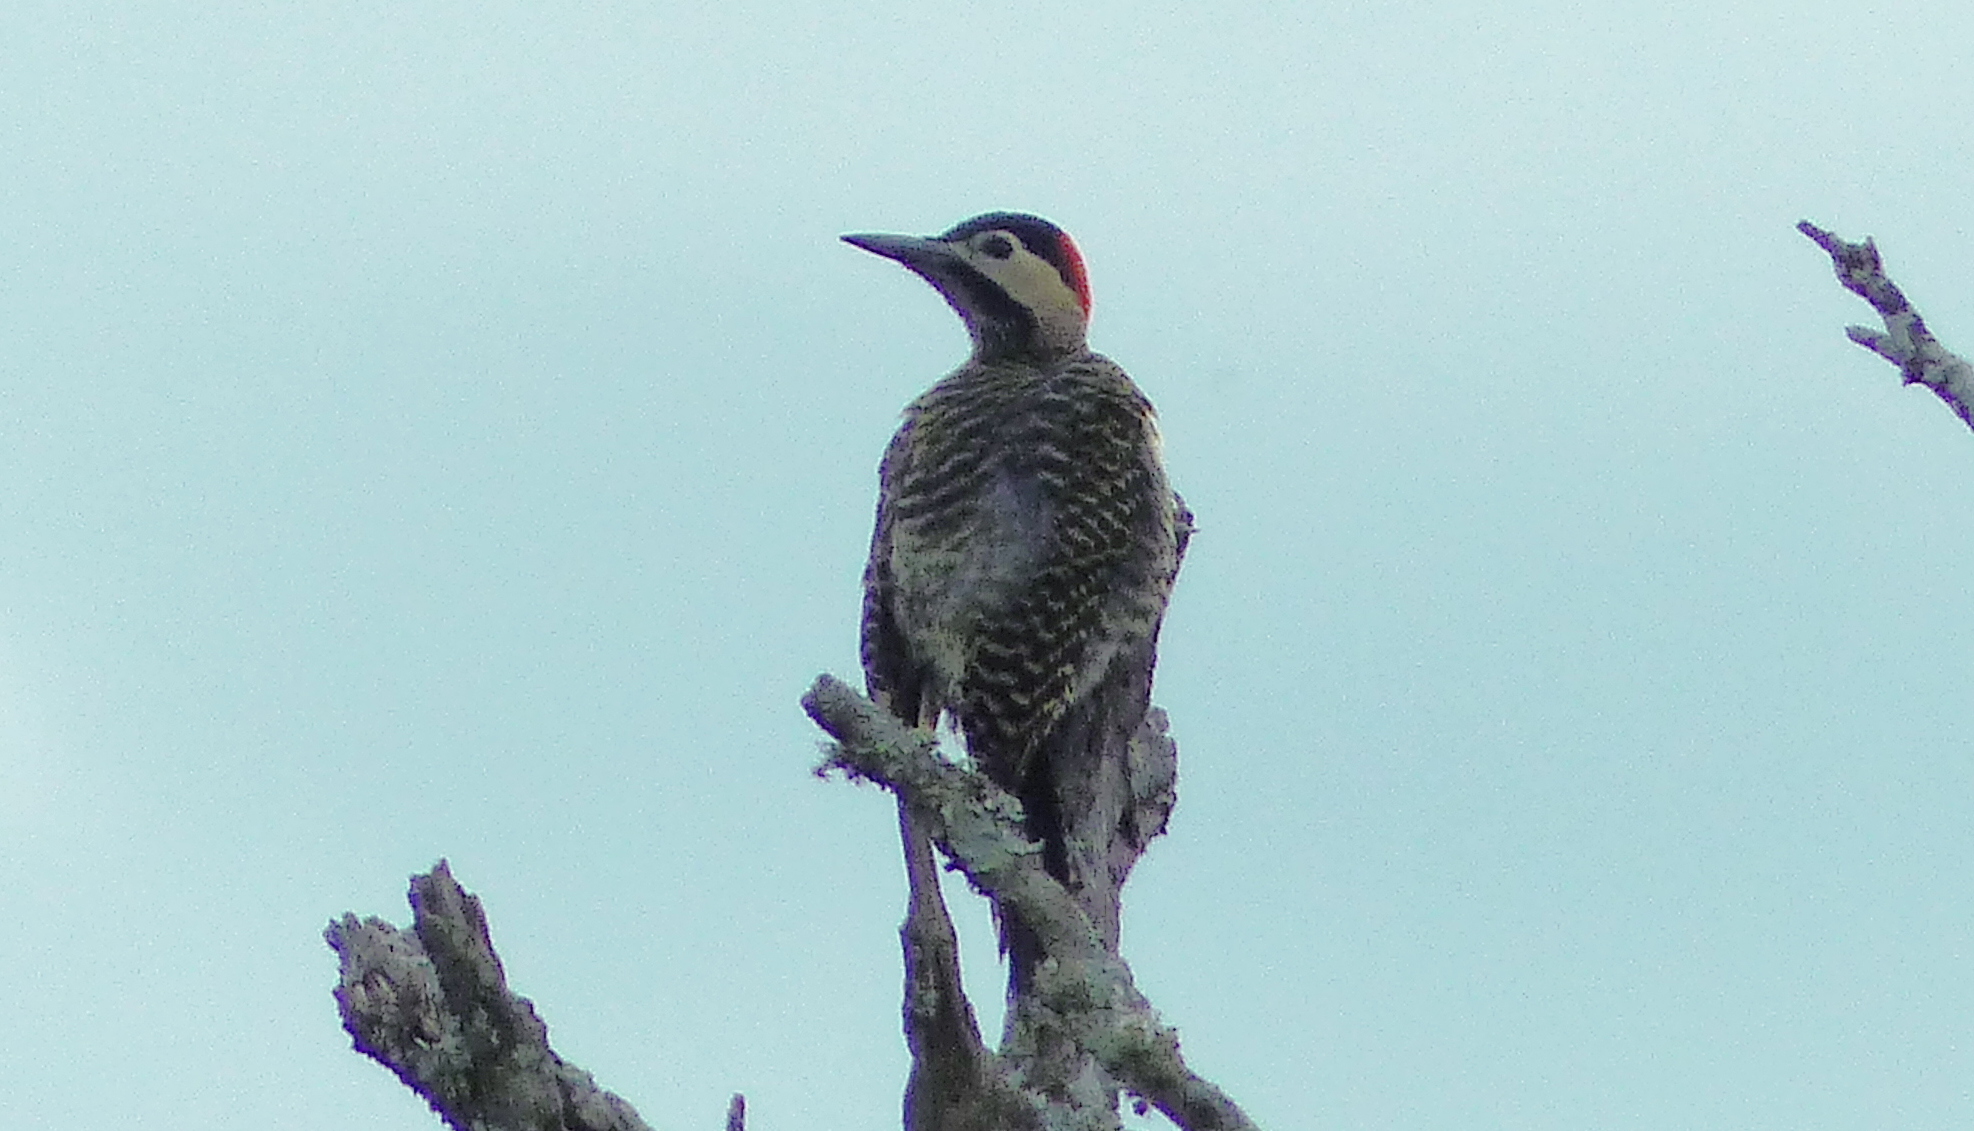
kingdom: Animalia
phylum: Chordata
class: Aves
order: Piciformes
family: Picidae
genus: Colaptes
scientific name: Colaptes melanochloros
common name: Green-barred woodpecker
